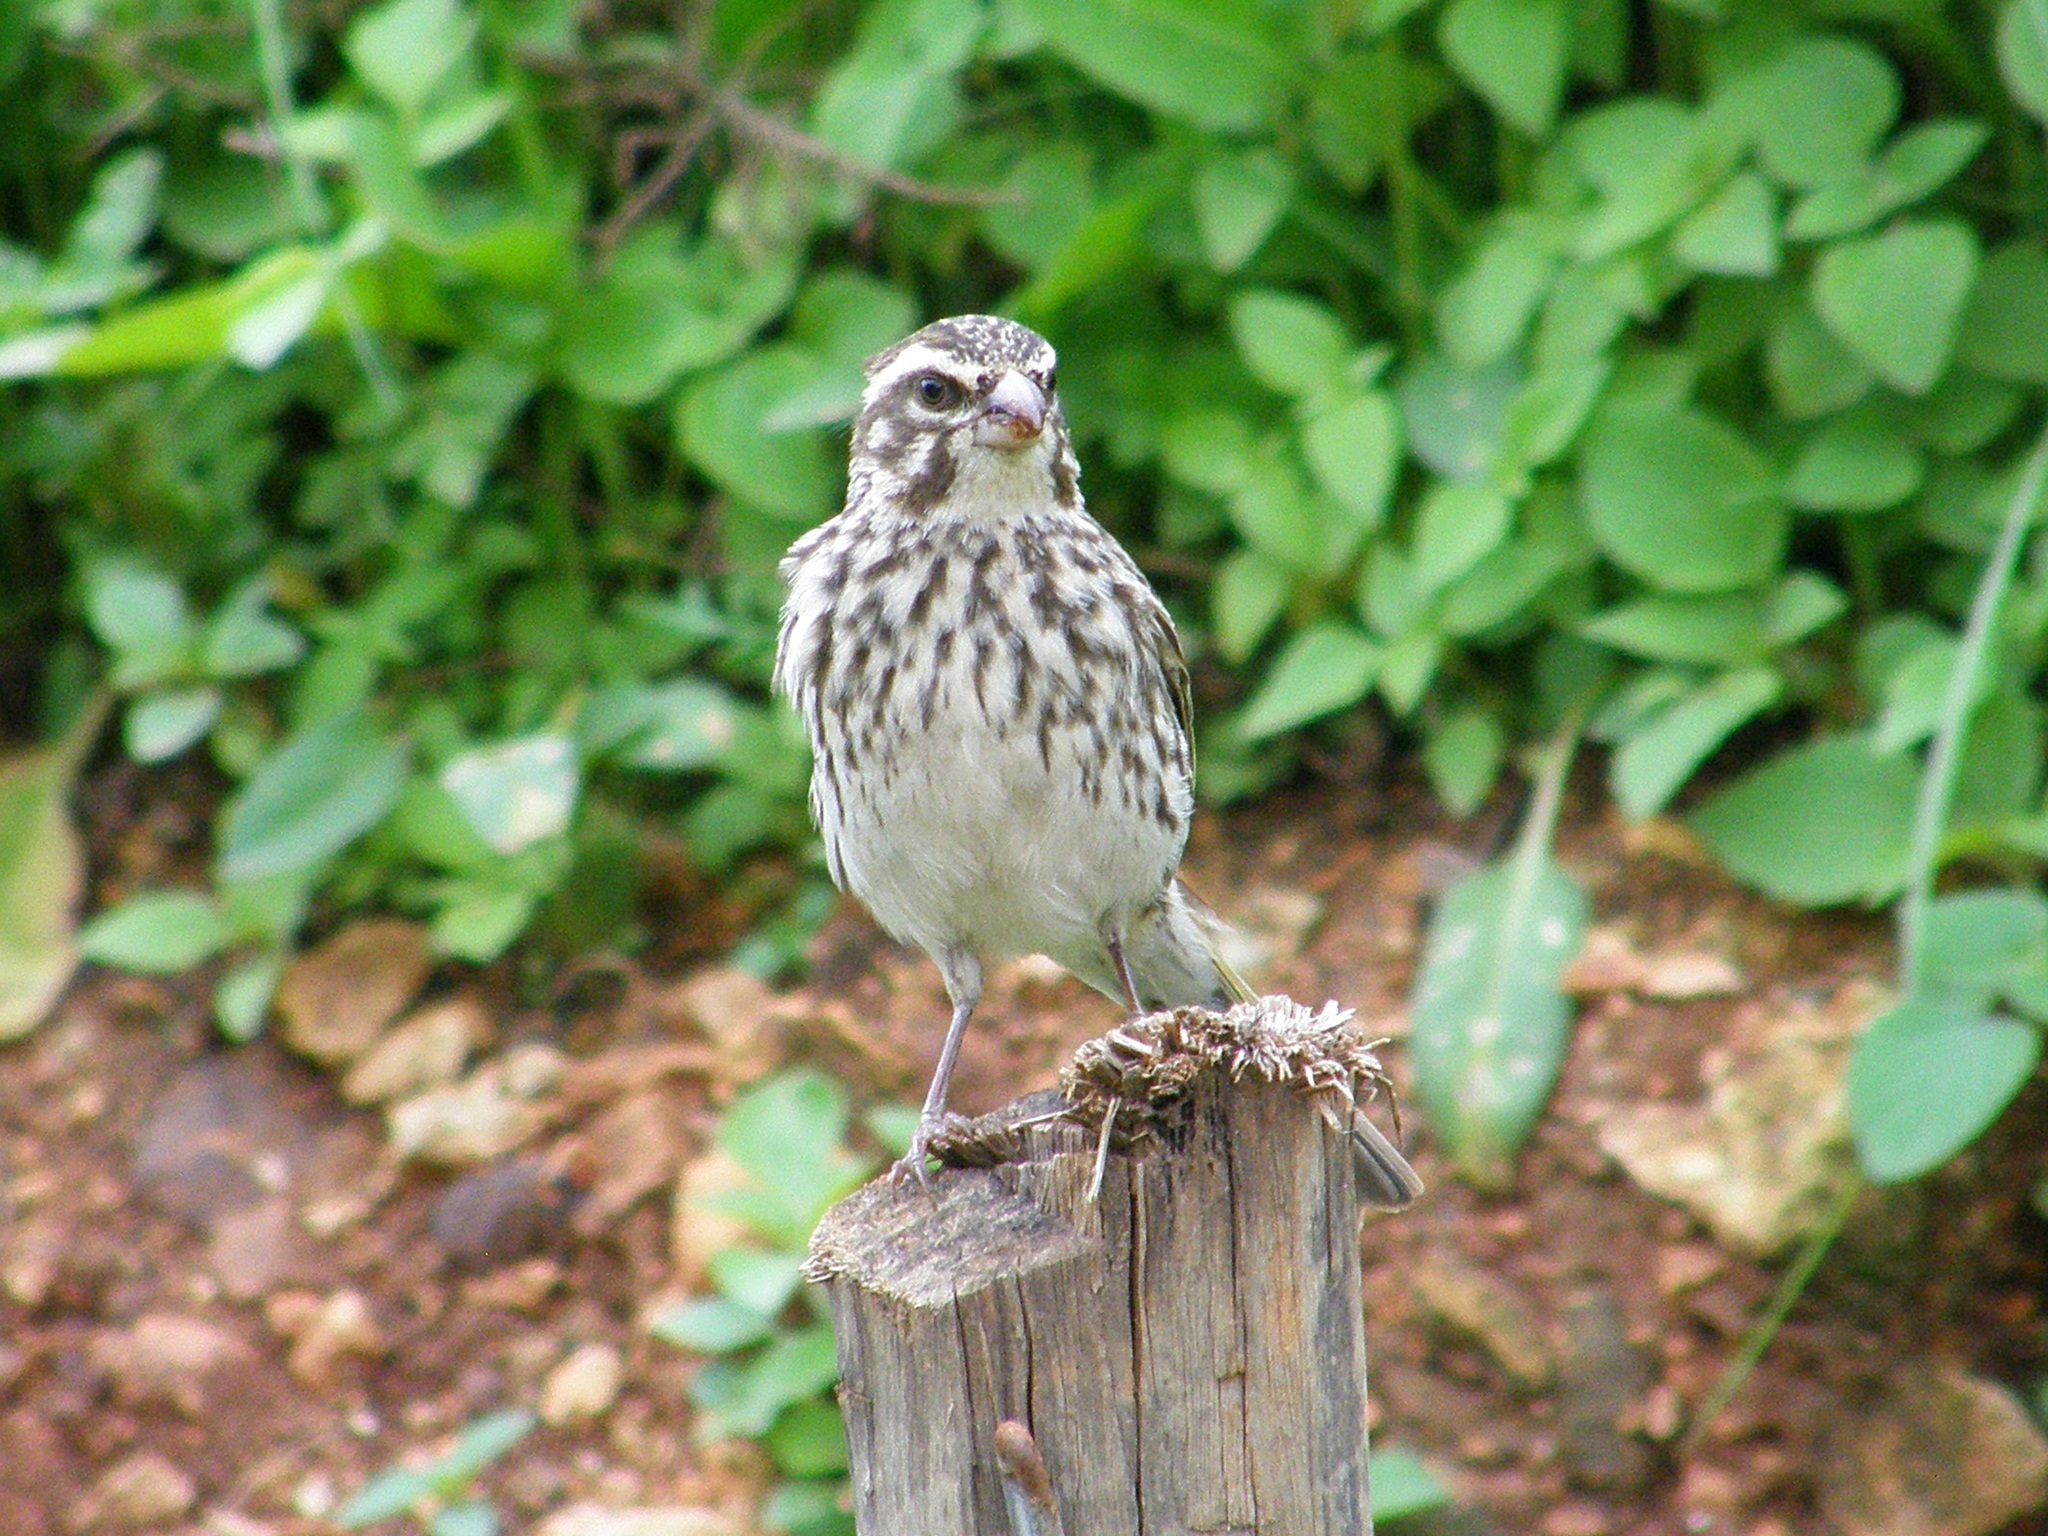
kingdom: Animalia
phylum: Chordata
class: Aves
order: Passeriformes
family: Fringillidae
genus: Crithagra
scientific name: Crithagra striolata
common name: Streaky seedeater
